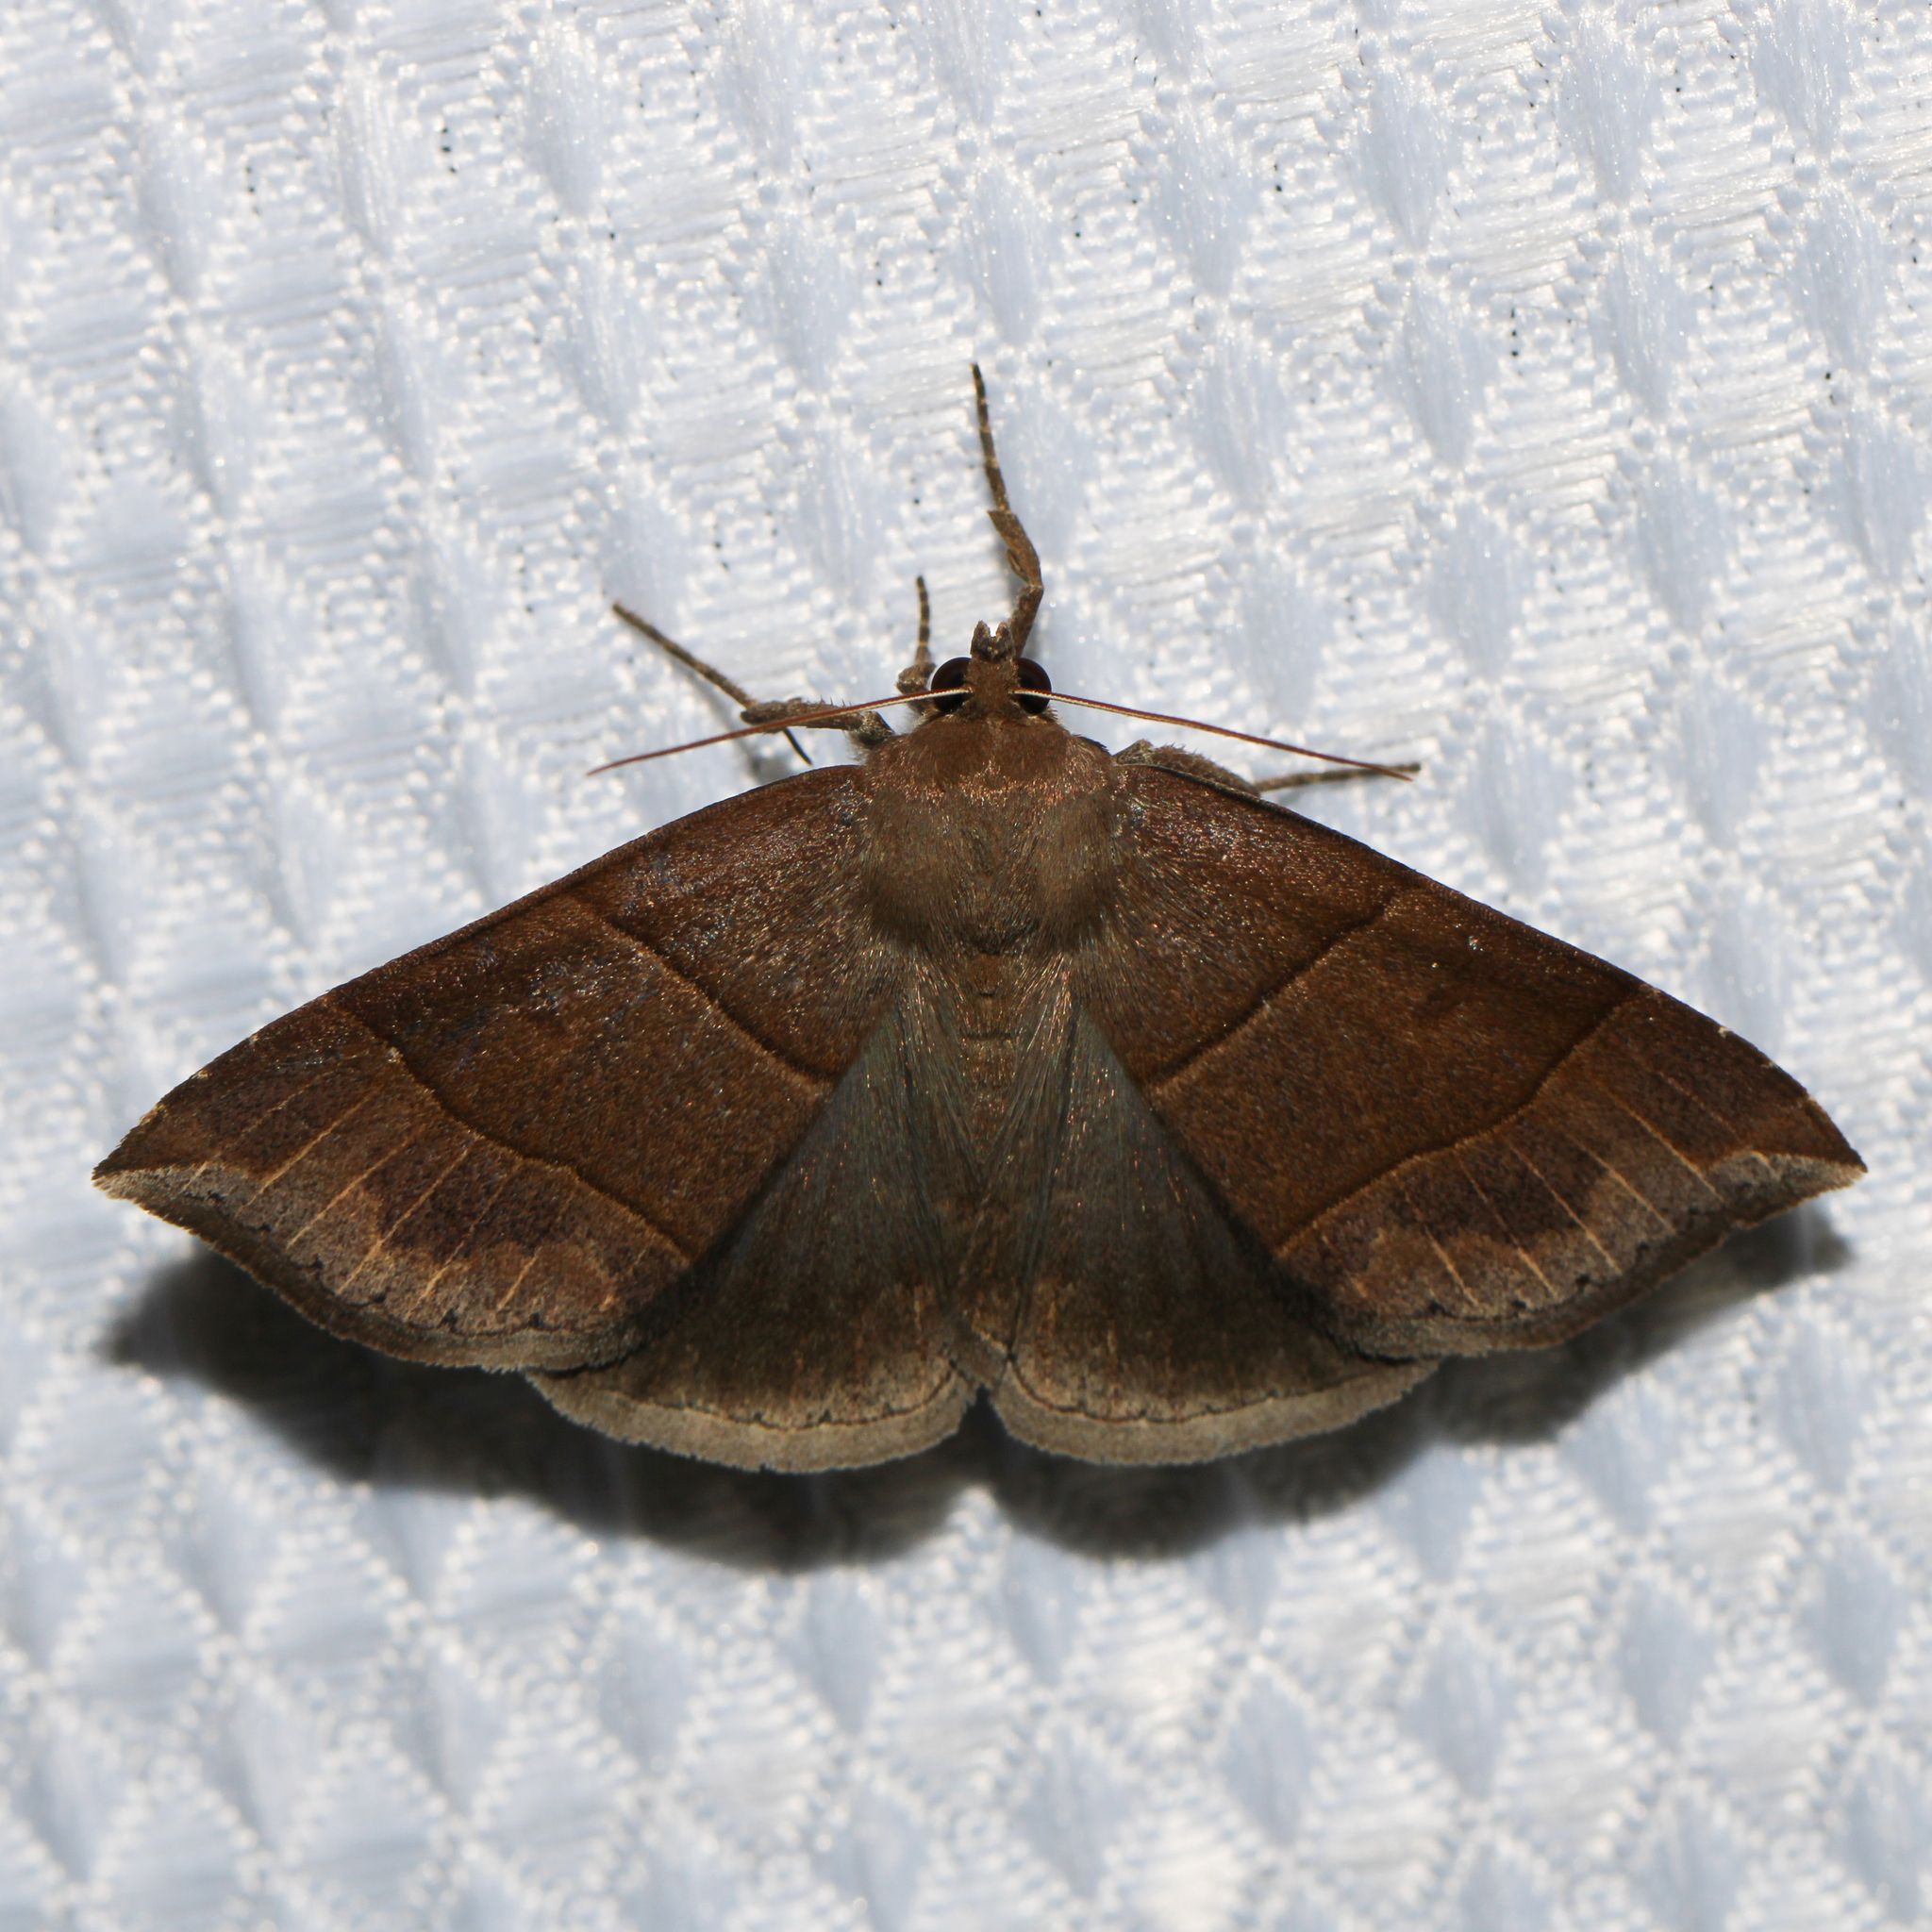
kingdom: Animalia
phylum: Arthropoda
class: Insecta
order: Lepidoptera
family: Erebidae
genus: Parallelia
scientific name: Parallelia bistriaris
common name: Maple looper moth
